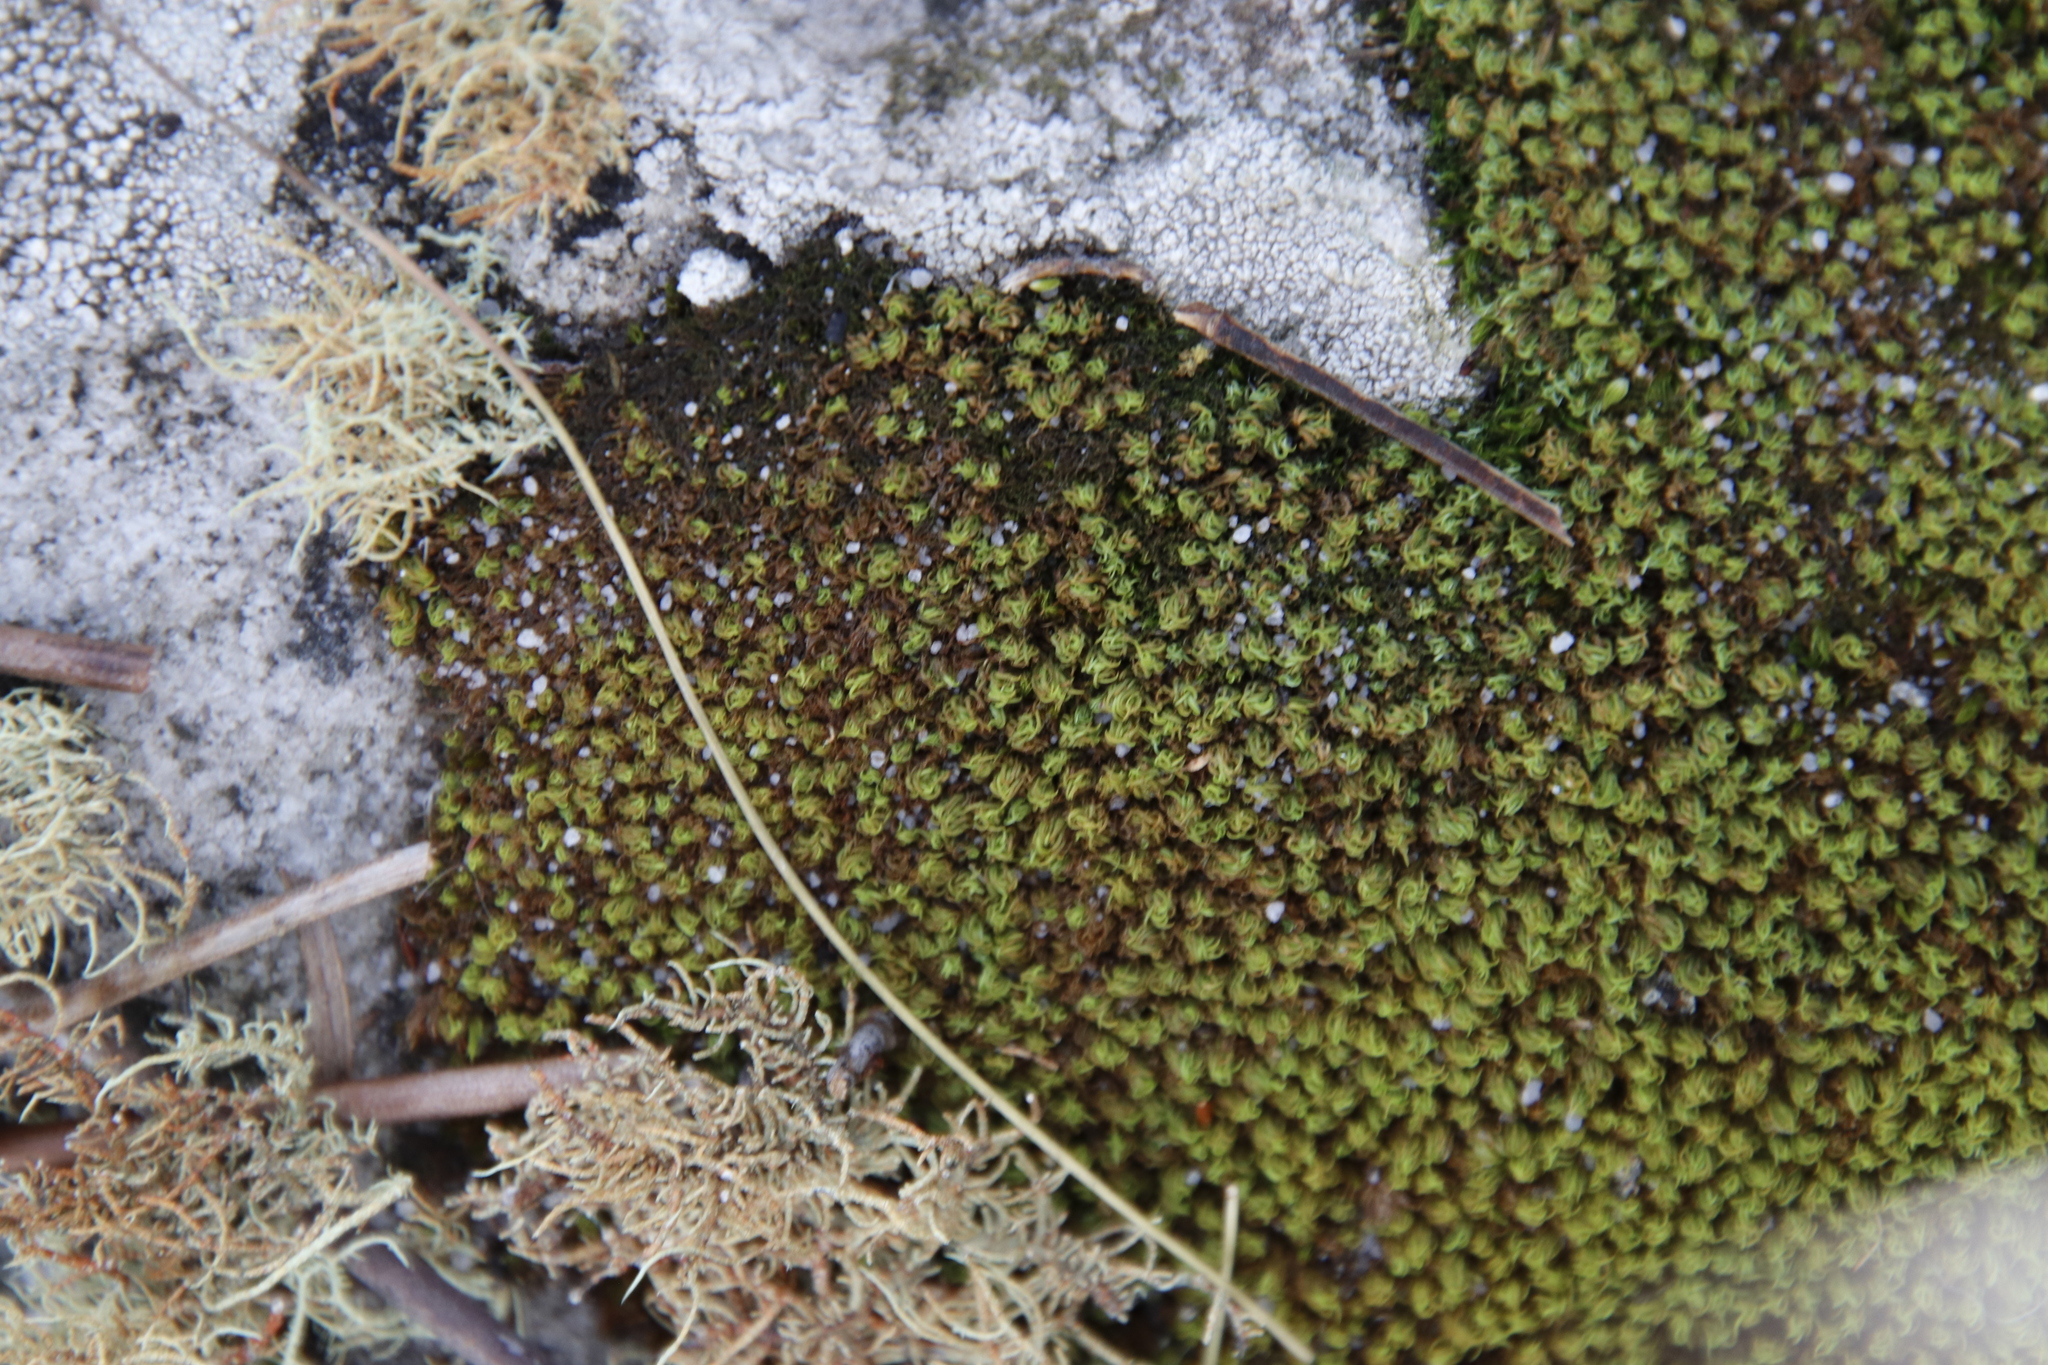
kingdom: Plantae
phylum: Bryophyta
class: Bryopsida
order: Dicranales
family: Hypodontiaceae
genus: Hypodontium
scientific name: Hypodontium dregei
